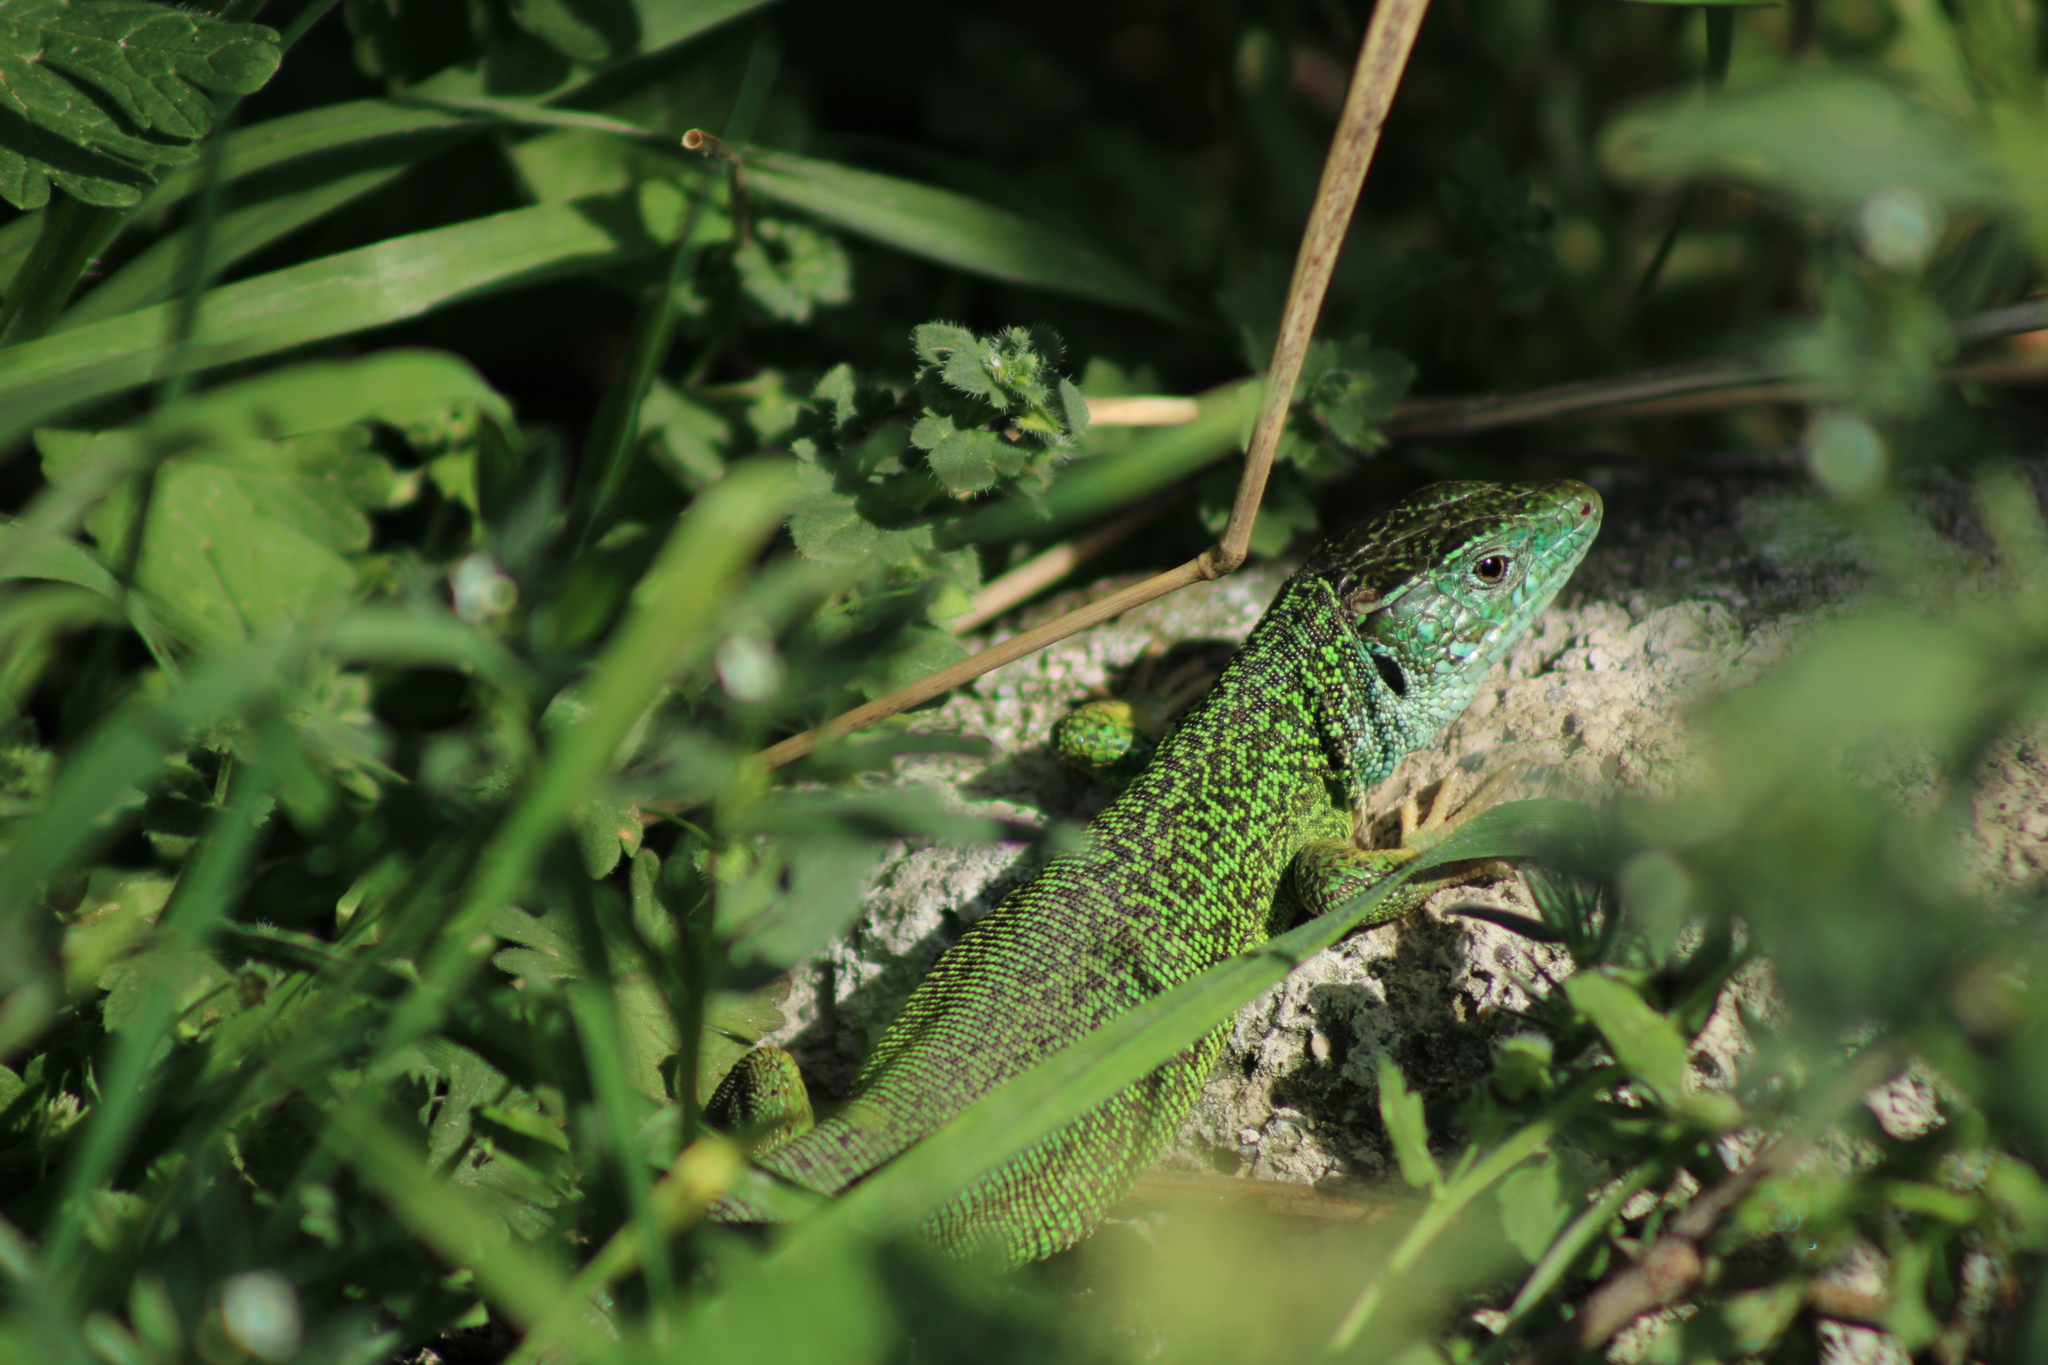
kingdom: Animalia
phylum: Chordata
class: Squamata
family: Lacertidae
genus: Lacerta
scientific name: Lacerta viridis
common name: European green lizard
